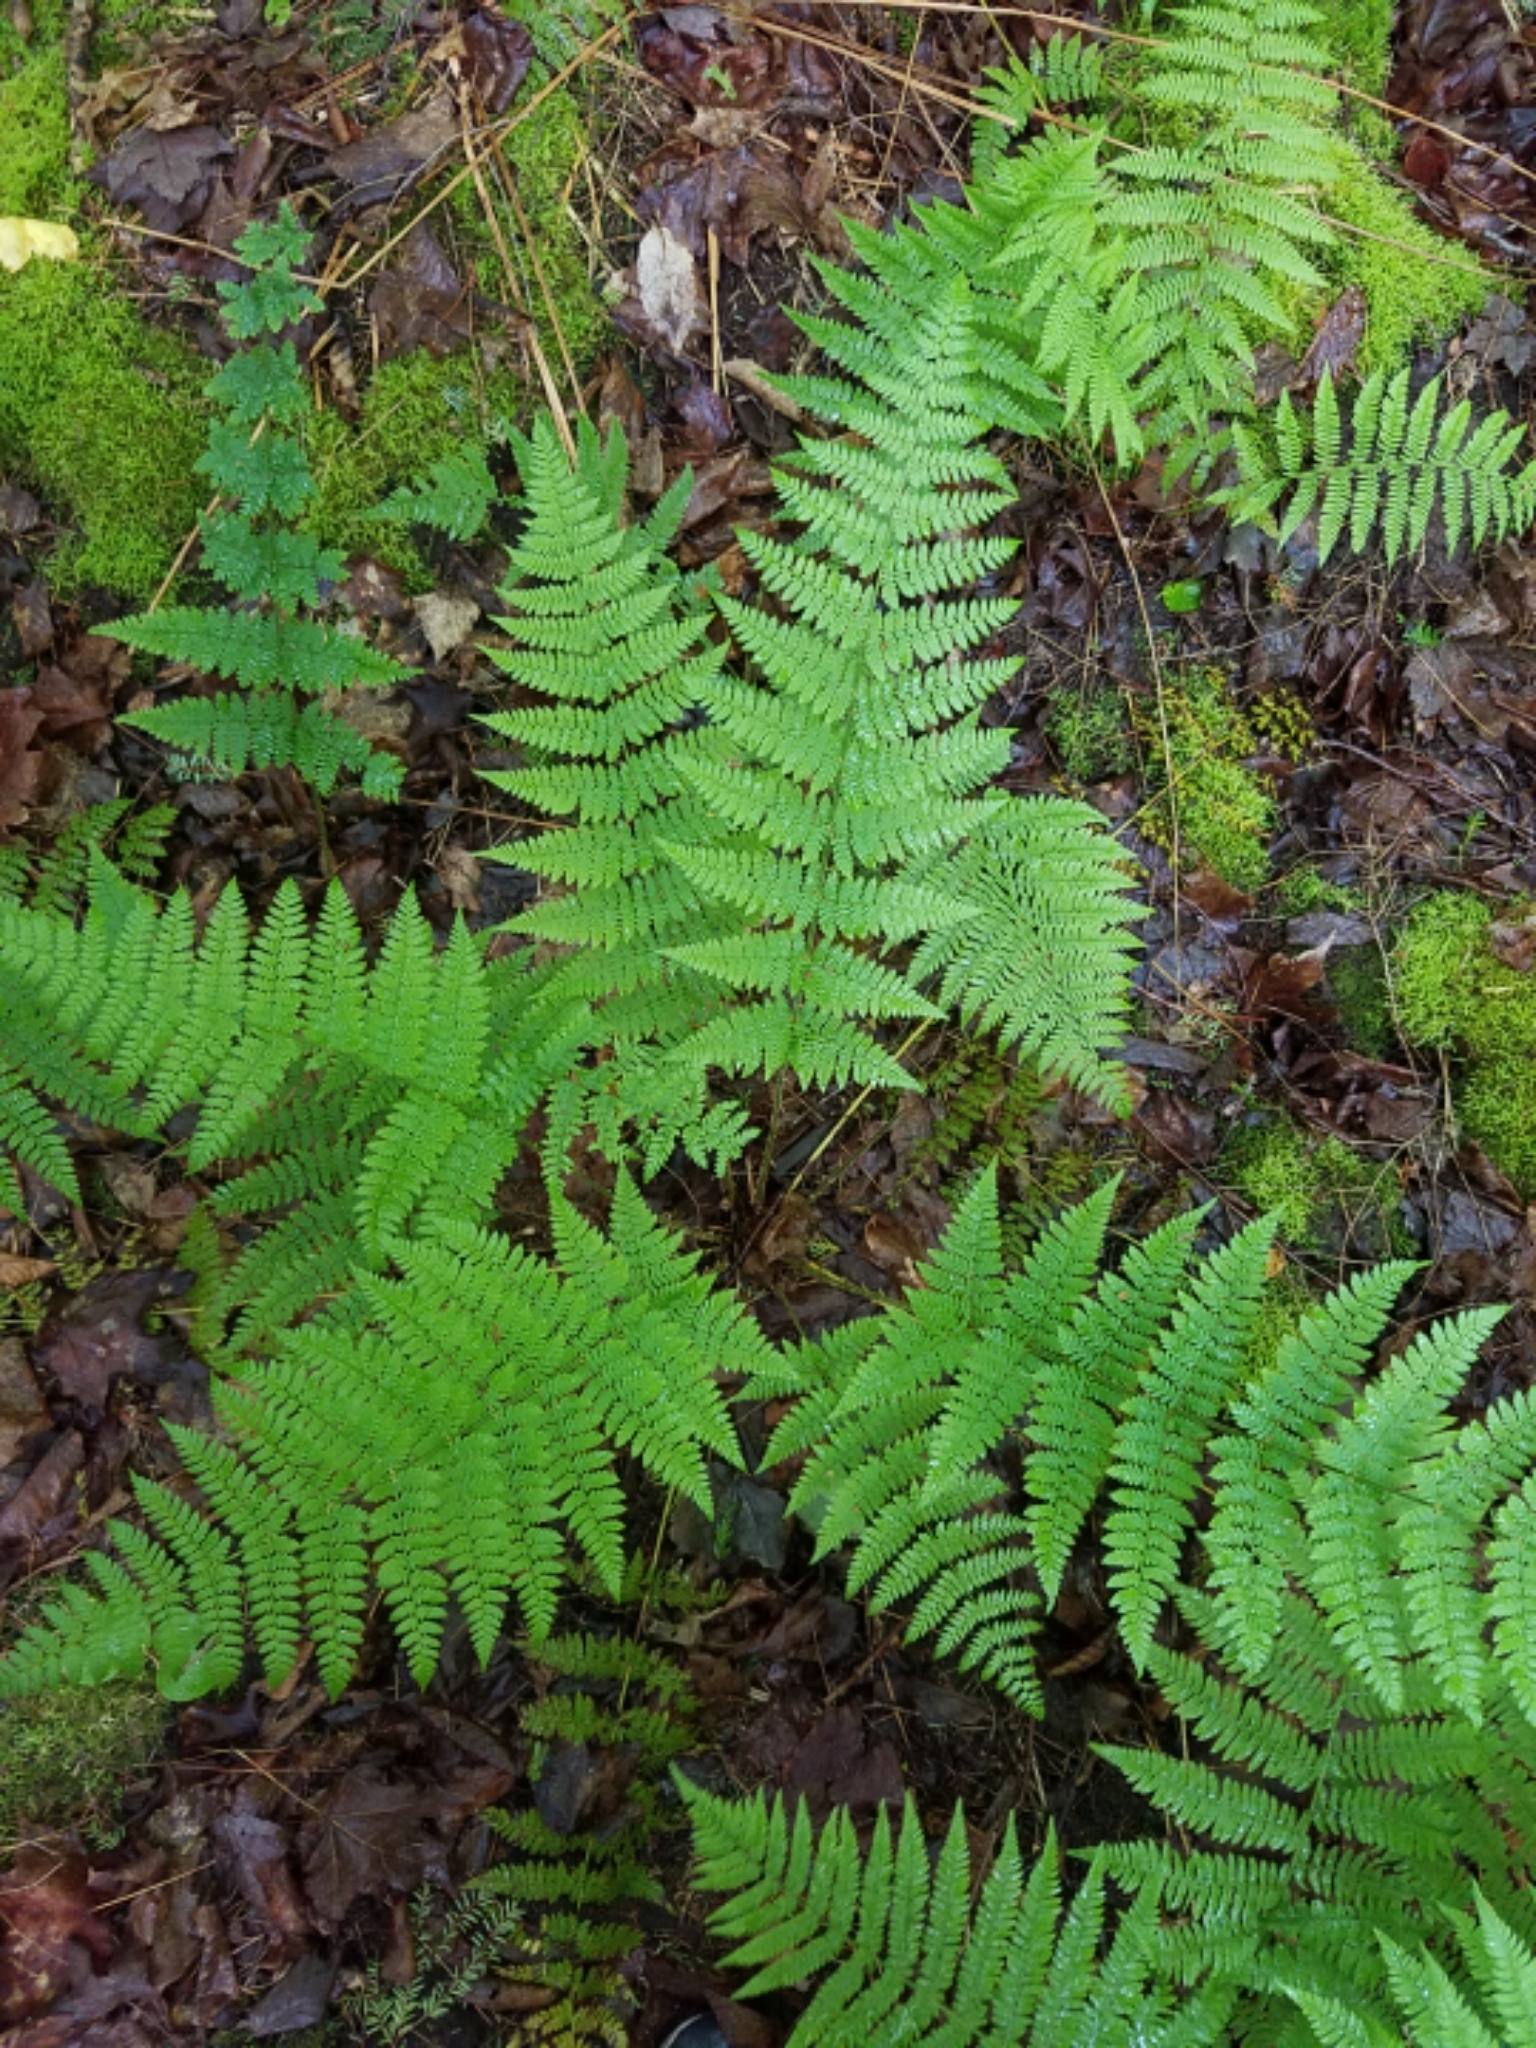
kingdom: Plantae
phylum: Tracheophyta
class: Polypodiopsida
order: Polypodiales
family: Dryopteridaceae
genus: Dryopteris
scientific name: Dryopteris intermedia
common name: Evergreen wood fern
